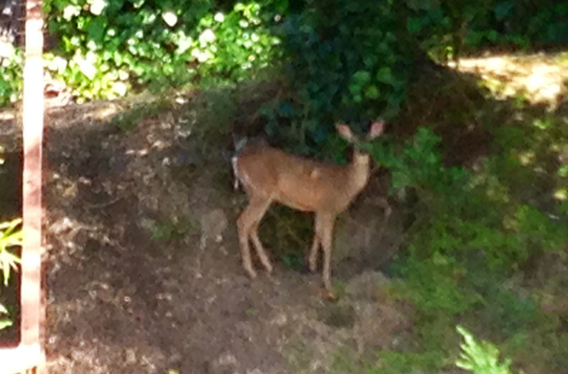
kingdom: Animalia
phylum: Chordata
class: Mammalia
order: Artiodactyla
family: Cervidae
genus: Odocoileus
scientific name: Odocoileus hemionus
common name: Mule deer
